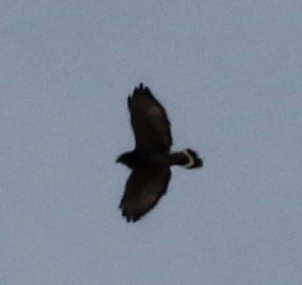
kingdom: Animalia
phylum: Chordata
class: Aves
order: Accipitriformes
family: Accipitridae
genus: Buteo
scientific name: Buteo platypterus
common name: Broad-winged hawk
